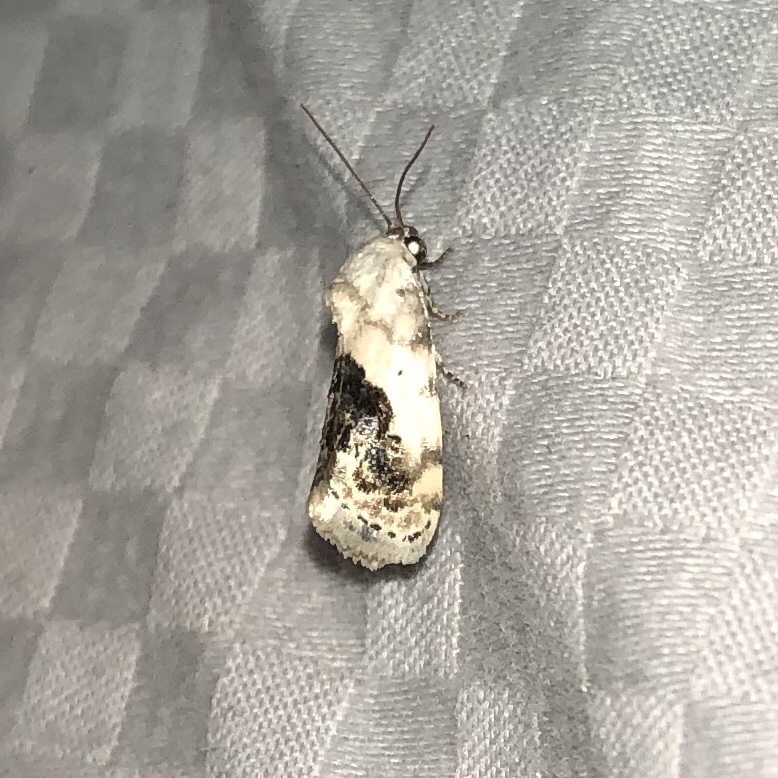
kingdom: Animalia
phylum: Arthropoda
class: Insecta
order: Lepidoptera
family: Noctuidae
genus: Acontia
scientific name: Acontia erastrioides
